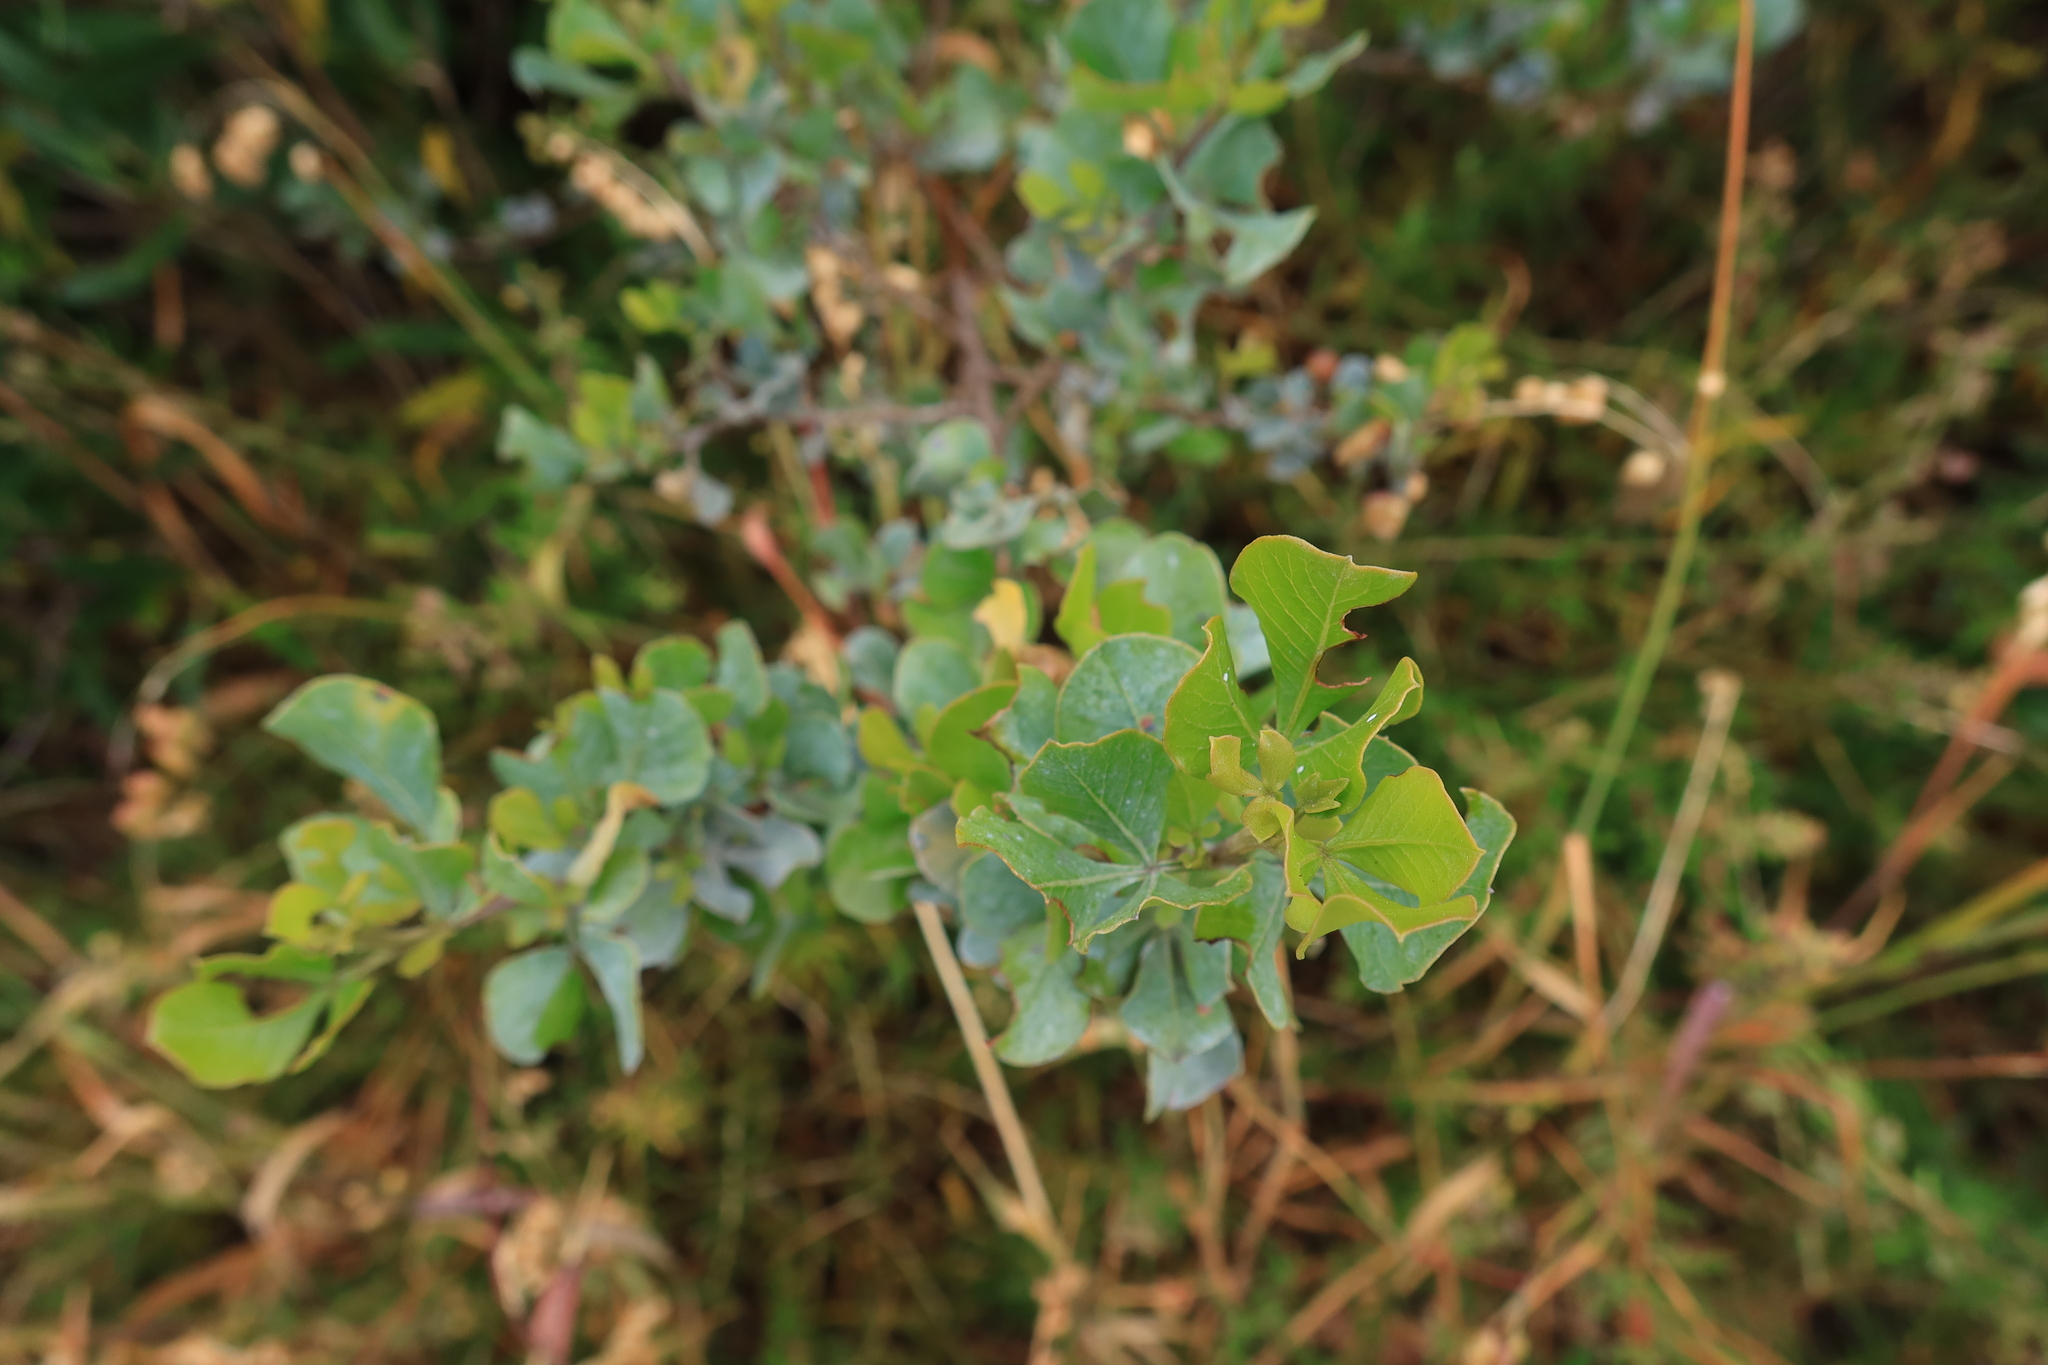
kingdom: Plantae
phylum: Tracheophyta
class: Magnoliopsida
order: Sapindales
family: Anacardiaceae
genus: Searsia
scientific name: Searsia glauca
